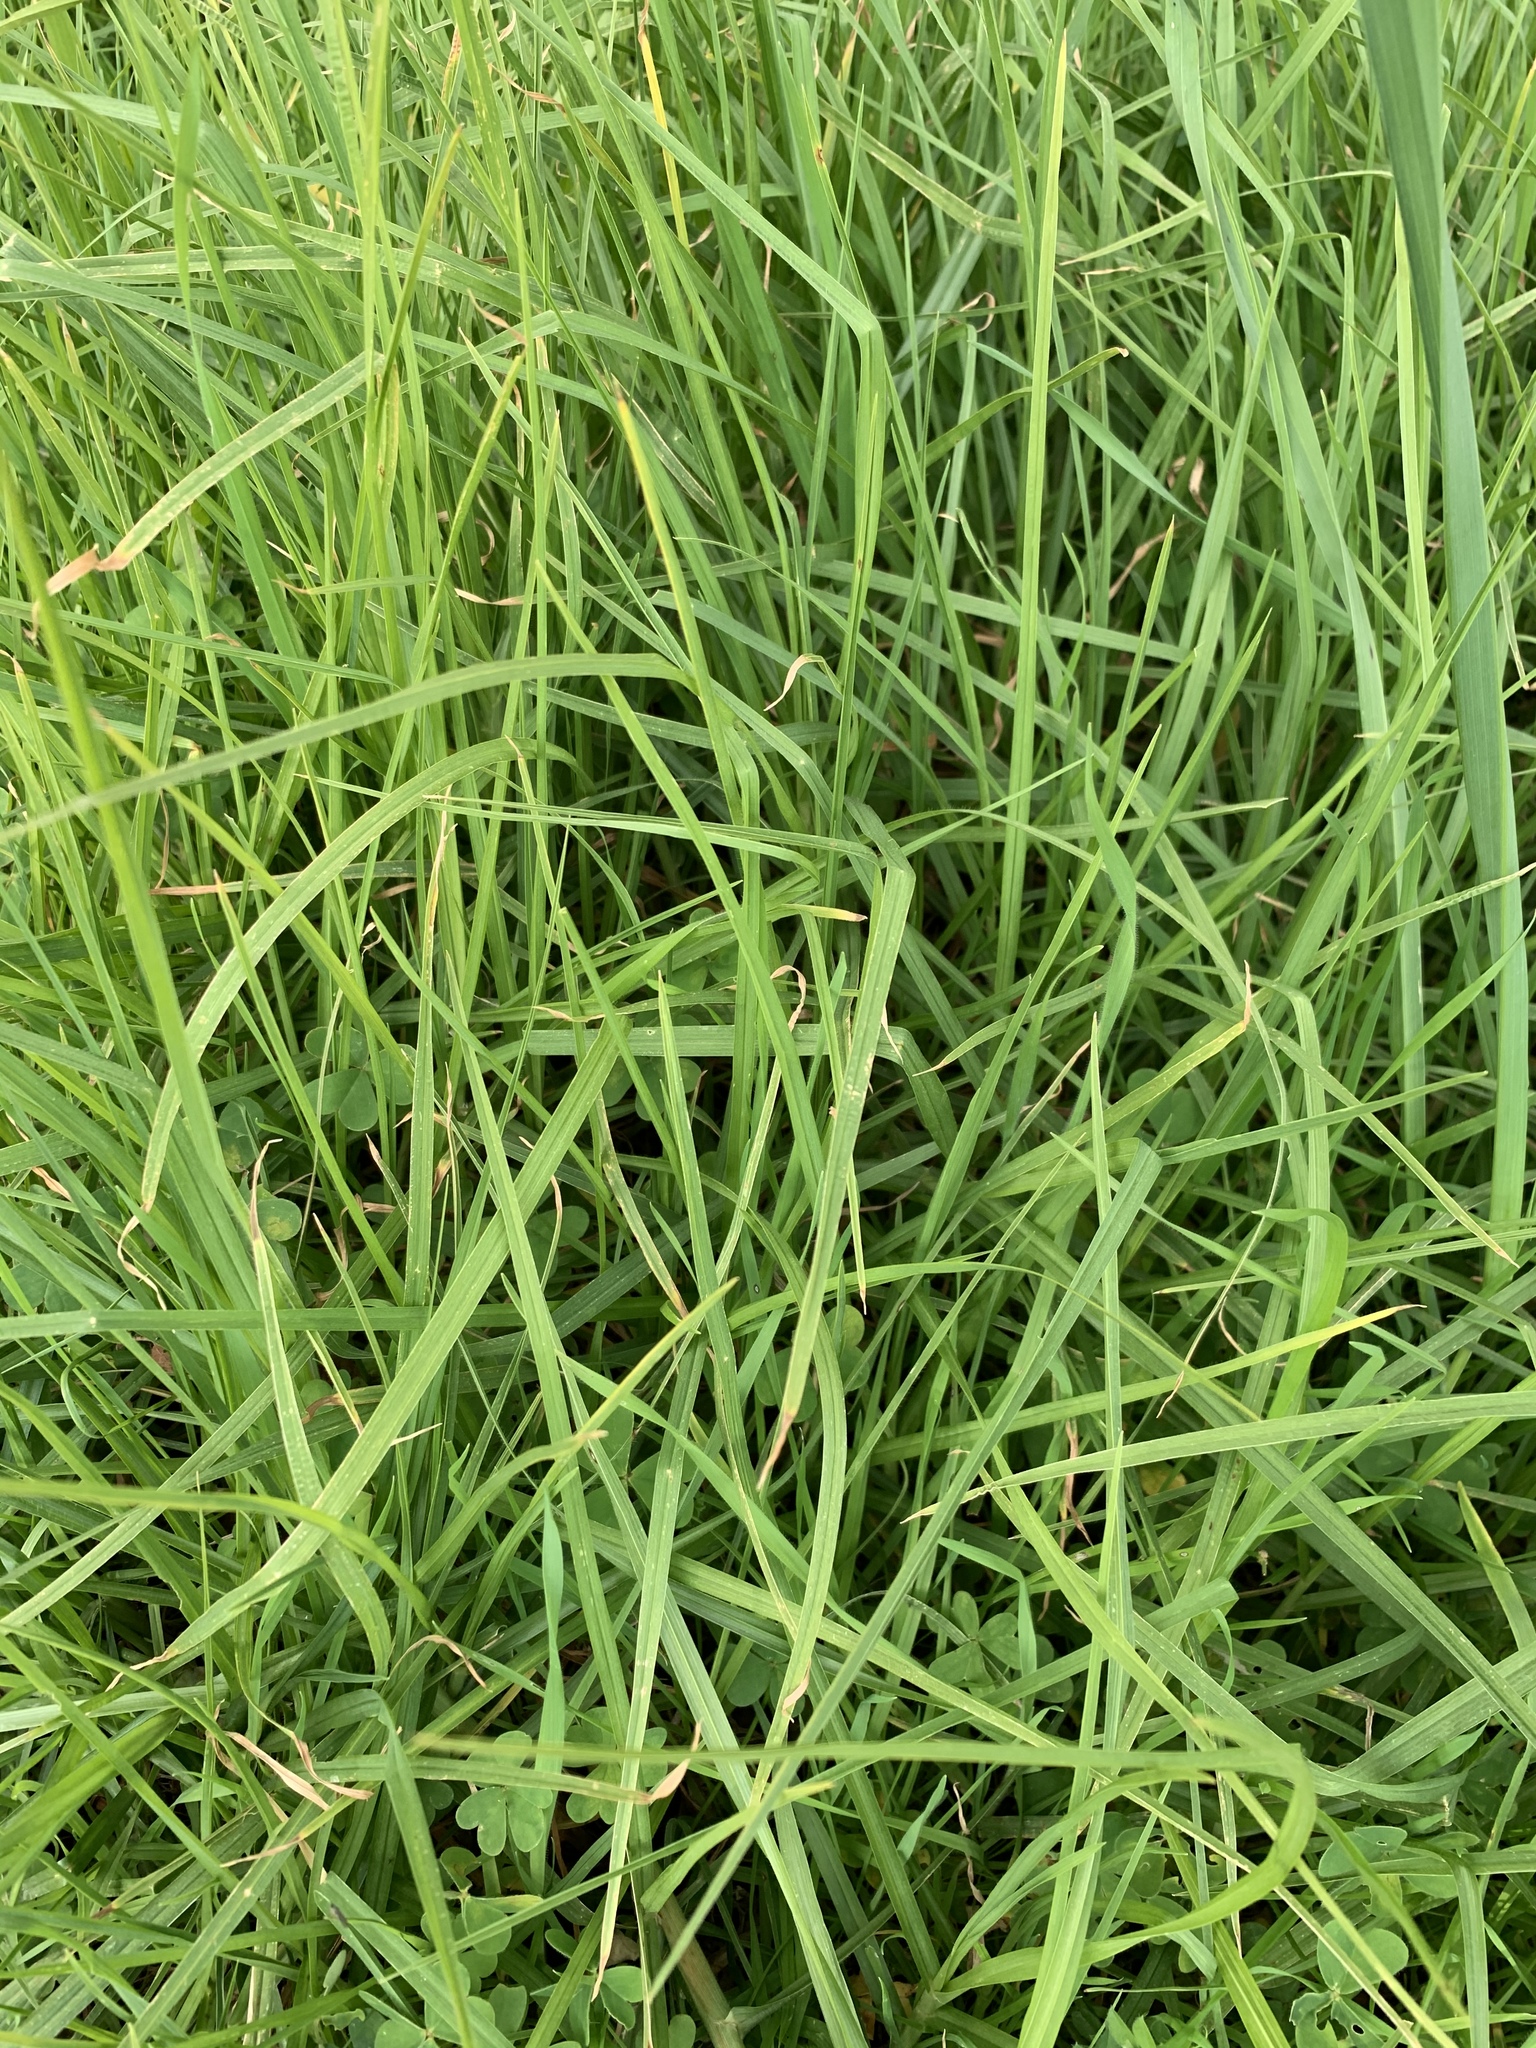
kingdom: Plantae
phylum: Tracheophyta
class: Liliopsida
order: Poales
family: Poaceae
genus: Cenchrus
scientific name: Cenchrus clandestinus
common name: Kikuyugrass
